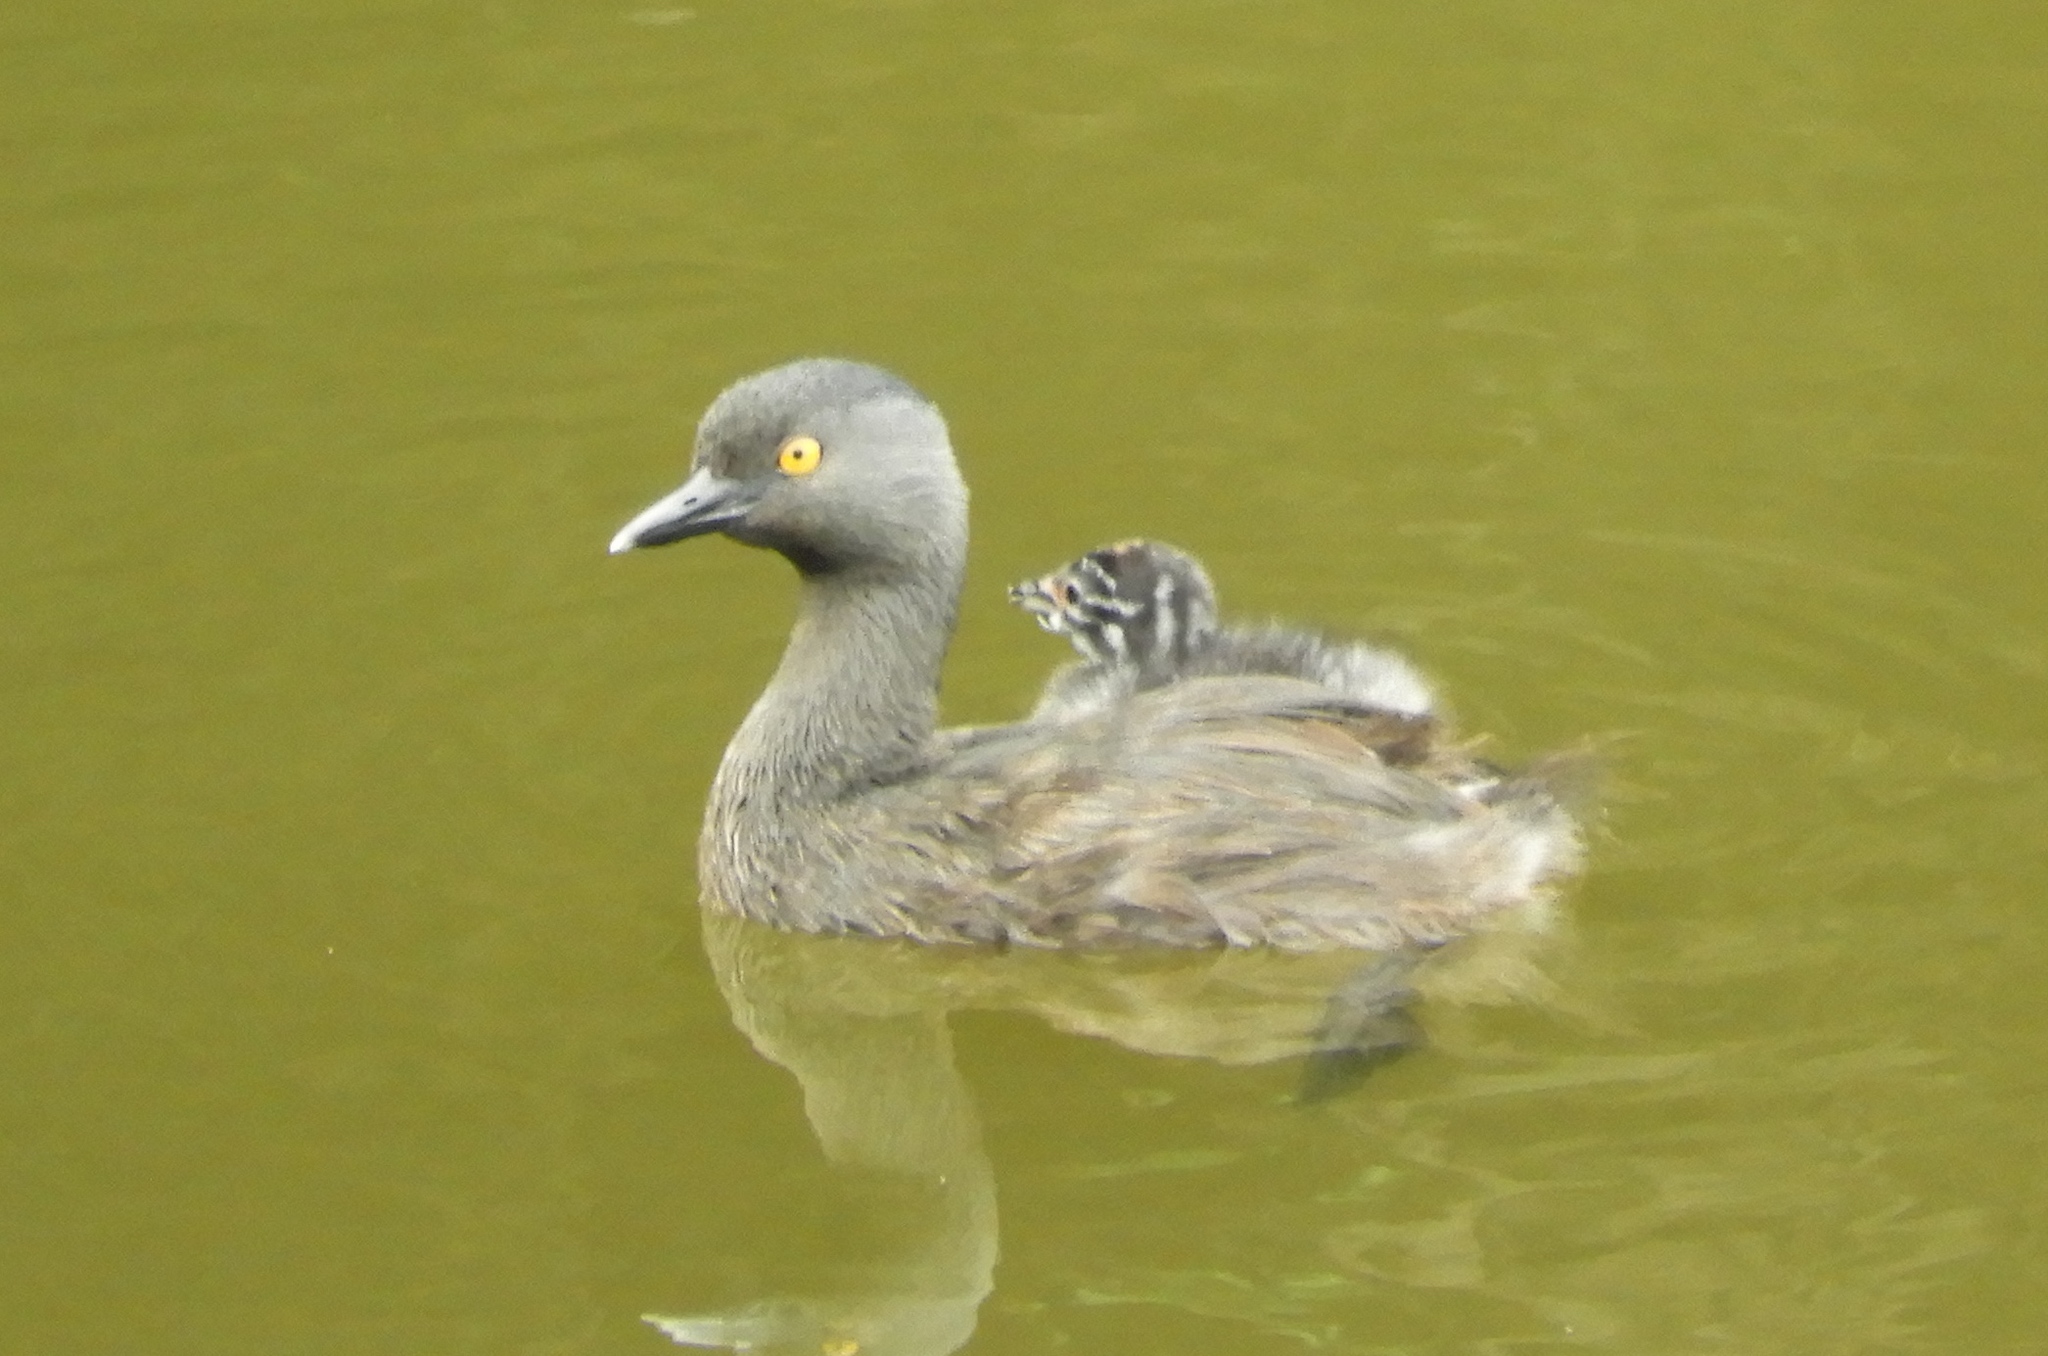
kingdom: Animalia
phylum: Chordata
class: Aves
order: Podicipediformes
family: Podicipedidae
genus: Tachybaptus
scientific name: Tachybaptus dominicus
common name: Least grebe
